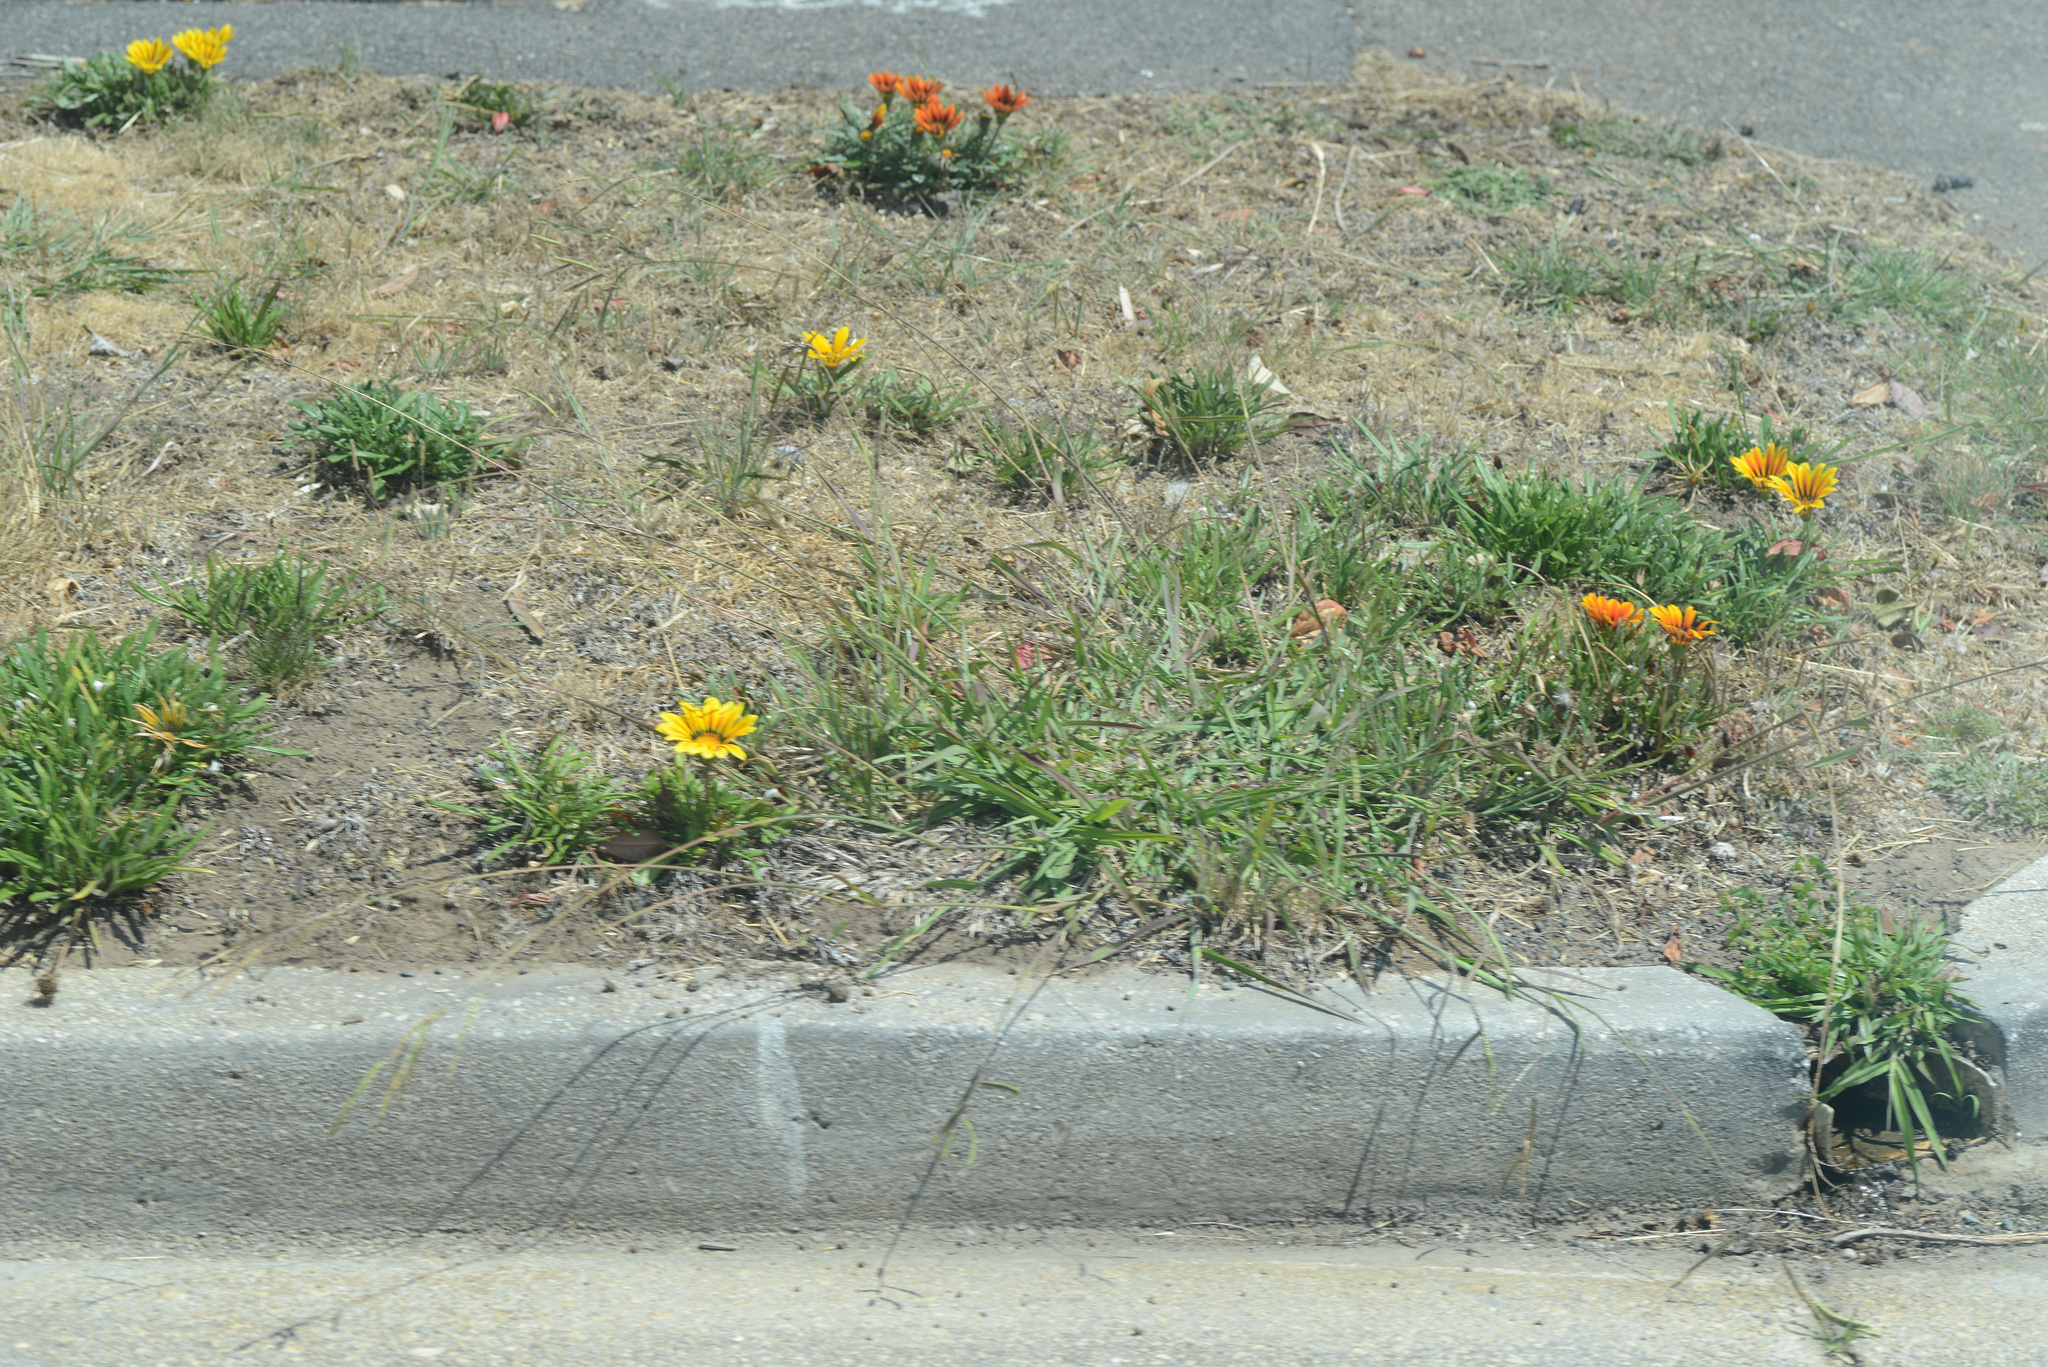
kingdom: Plantae
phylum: Tracheophyta
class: Magnoliopsida
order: Asterales
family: Asteraceae
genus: Gazania
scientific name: Gazania splendens
